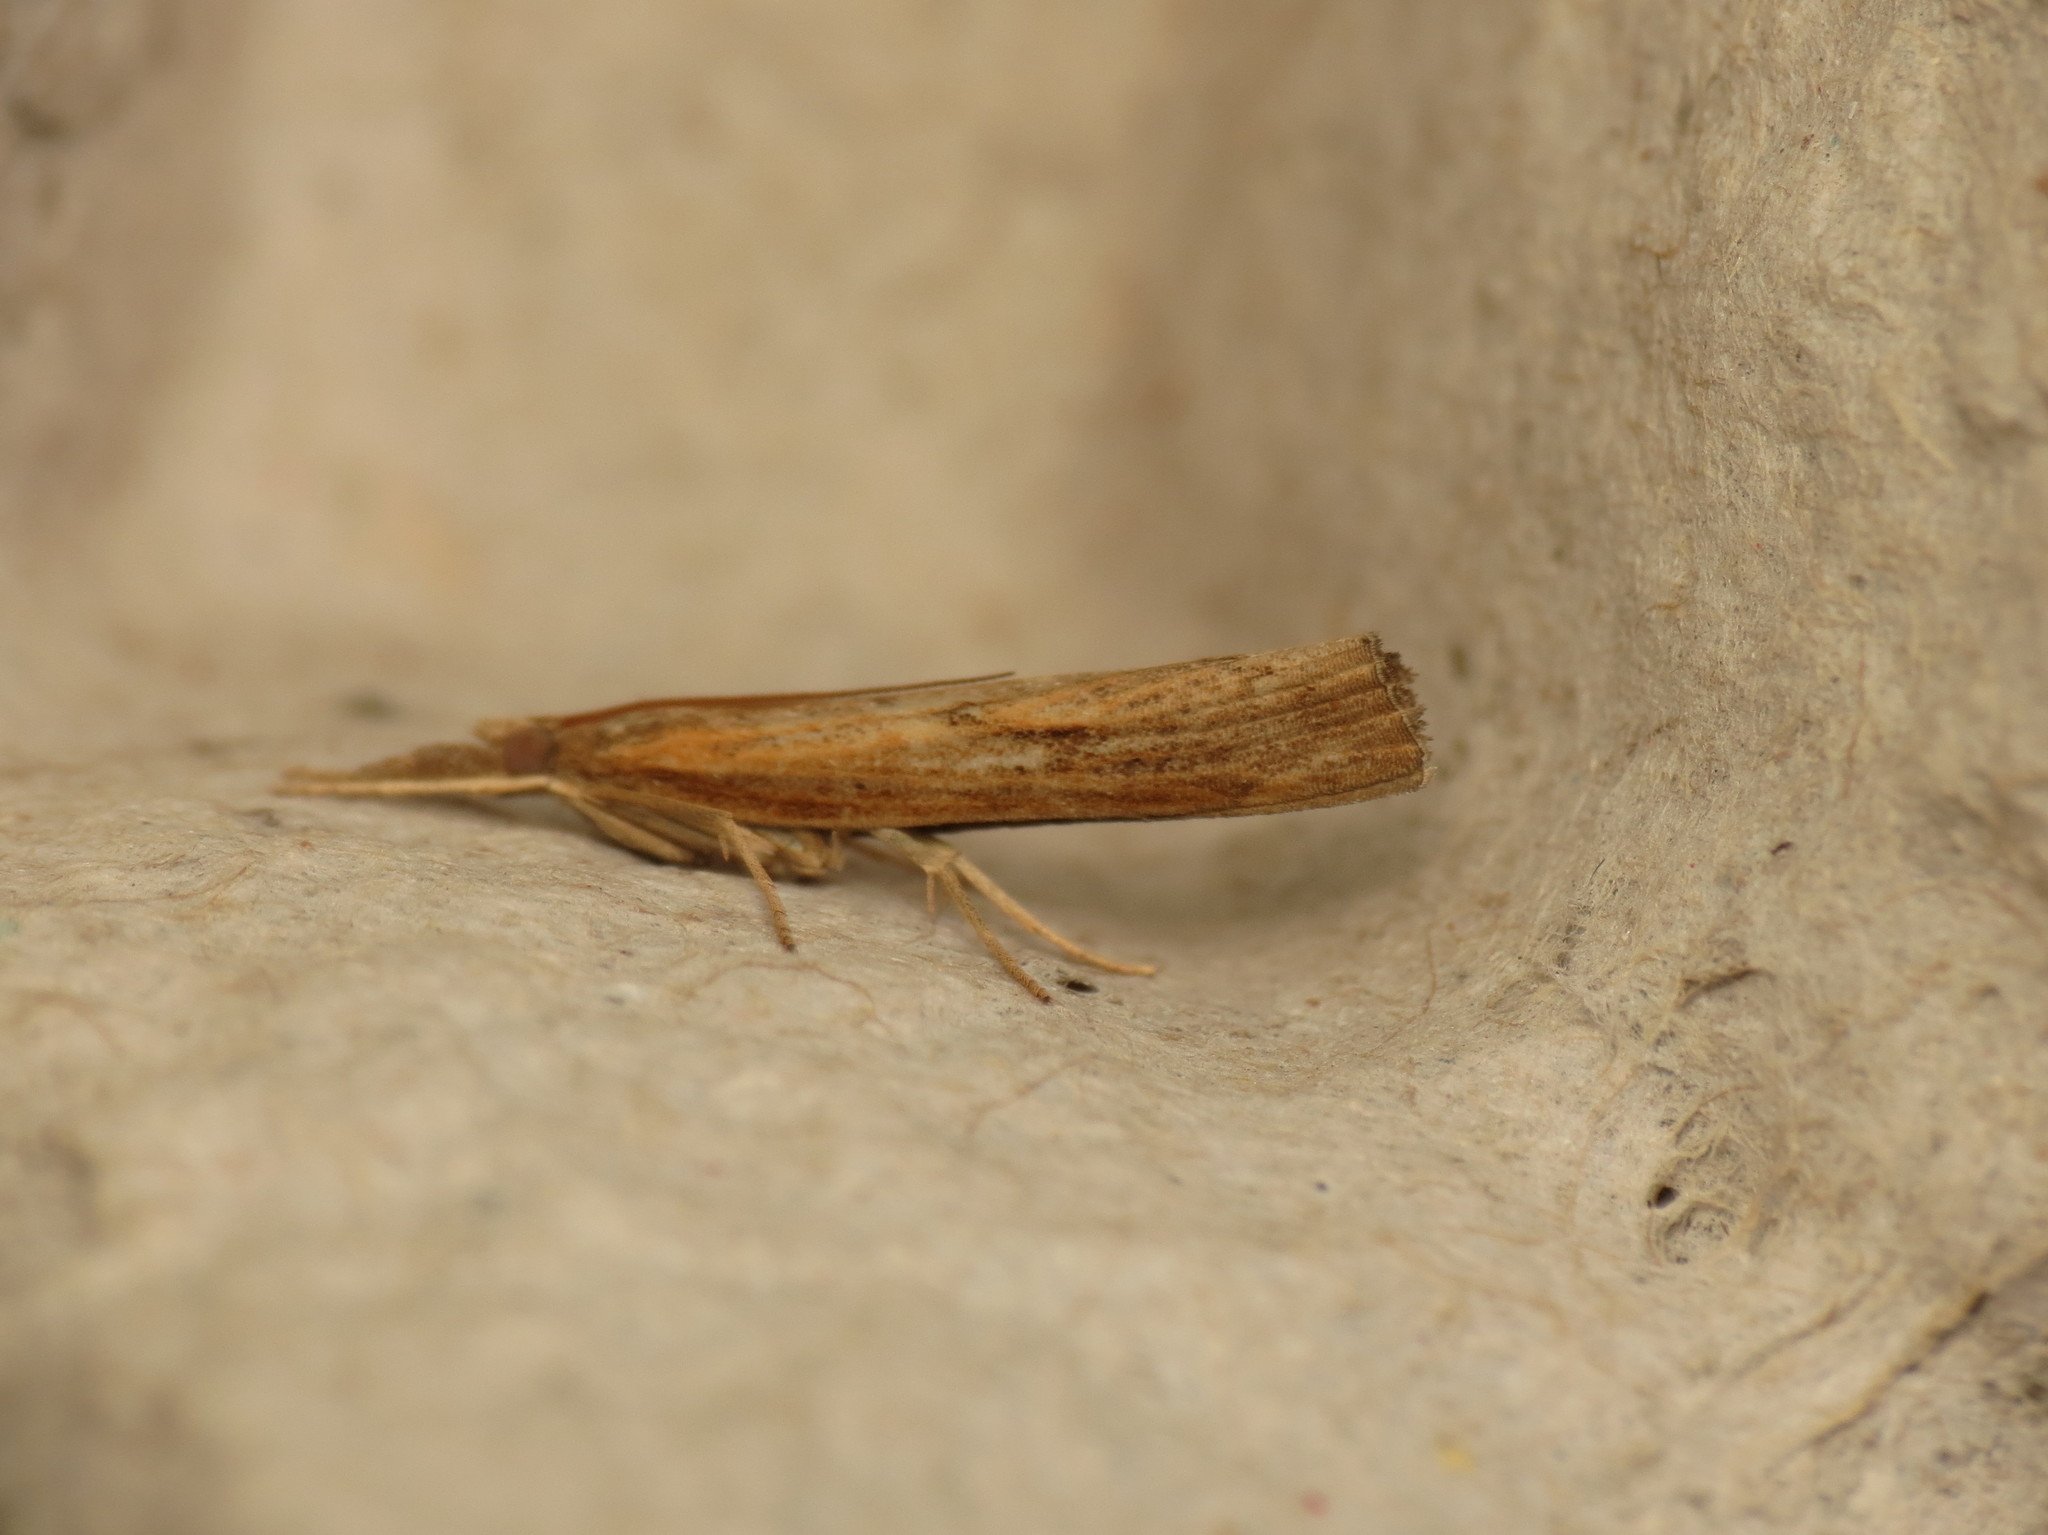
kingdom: Animalia
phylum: Arthropoda
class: Insecta
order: Lepidoptera
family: Crambidae
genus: Pediasia
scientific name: Pediasia contaminella
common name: Waste grass-veneer
